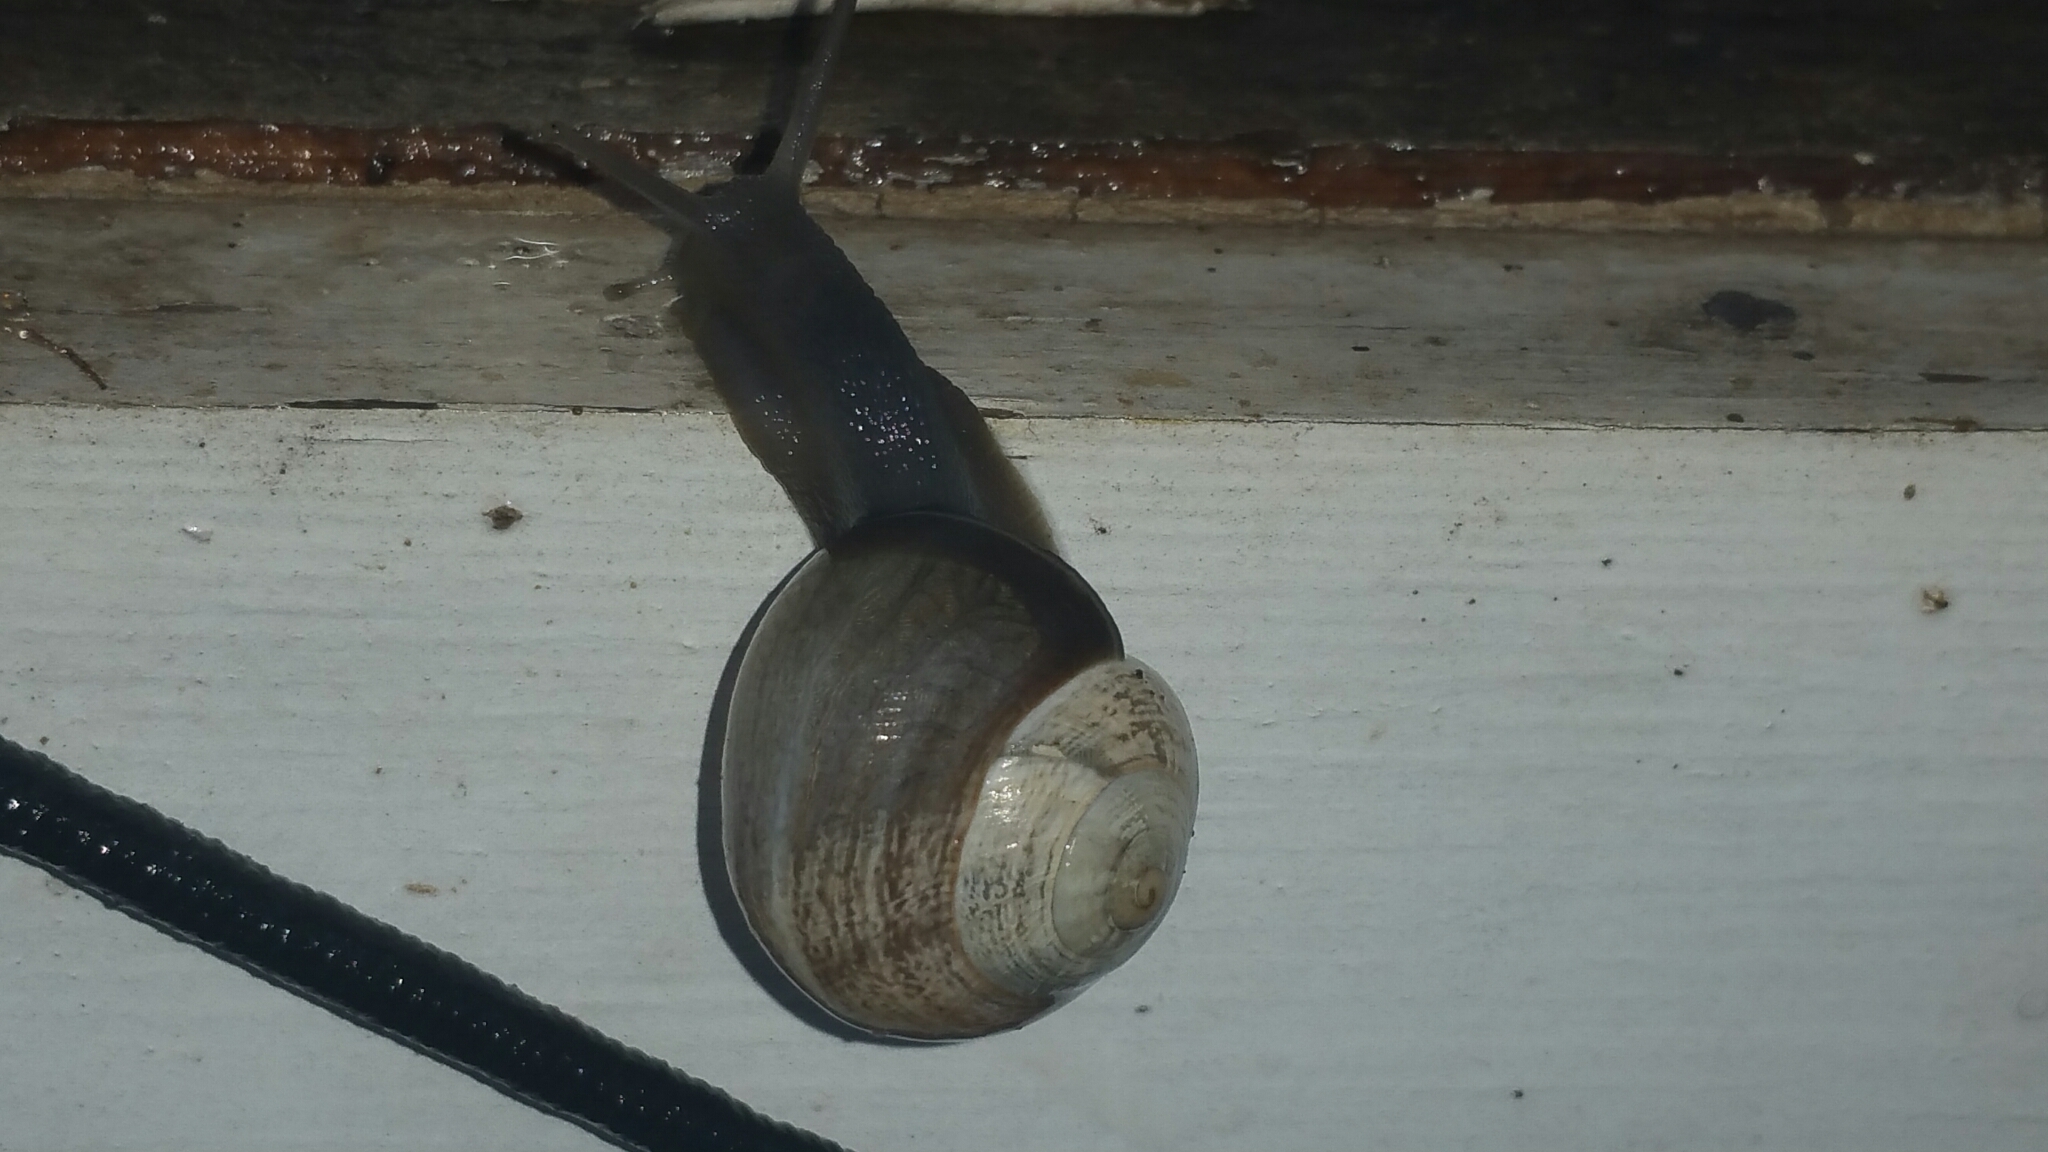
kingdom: Animalia
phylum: Mollusca
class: Gastropoda
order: Stylommatophora
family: Helicidae
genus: Otala
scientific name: Otala lactea
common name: Milk snail
